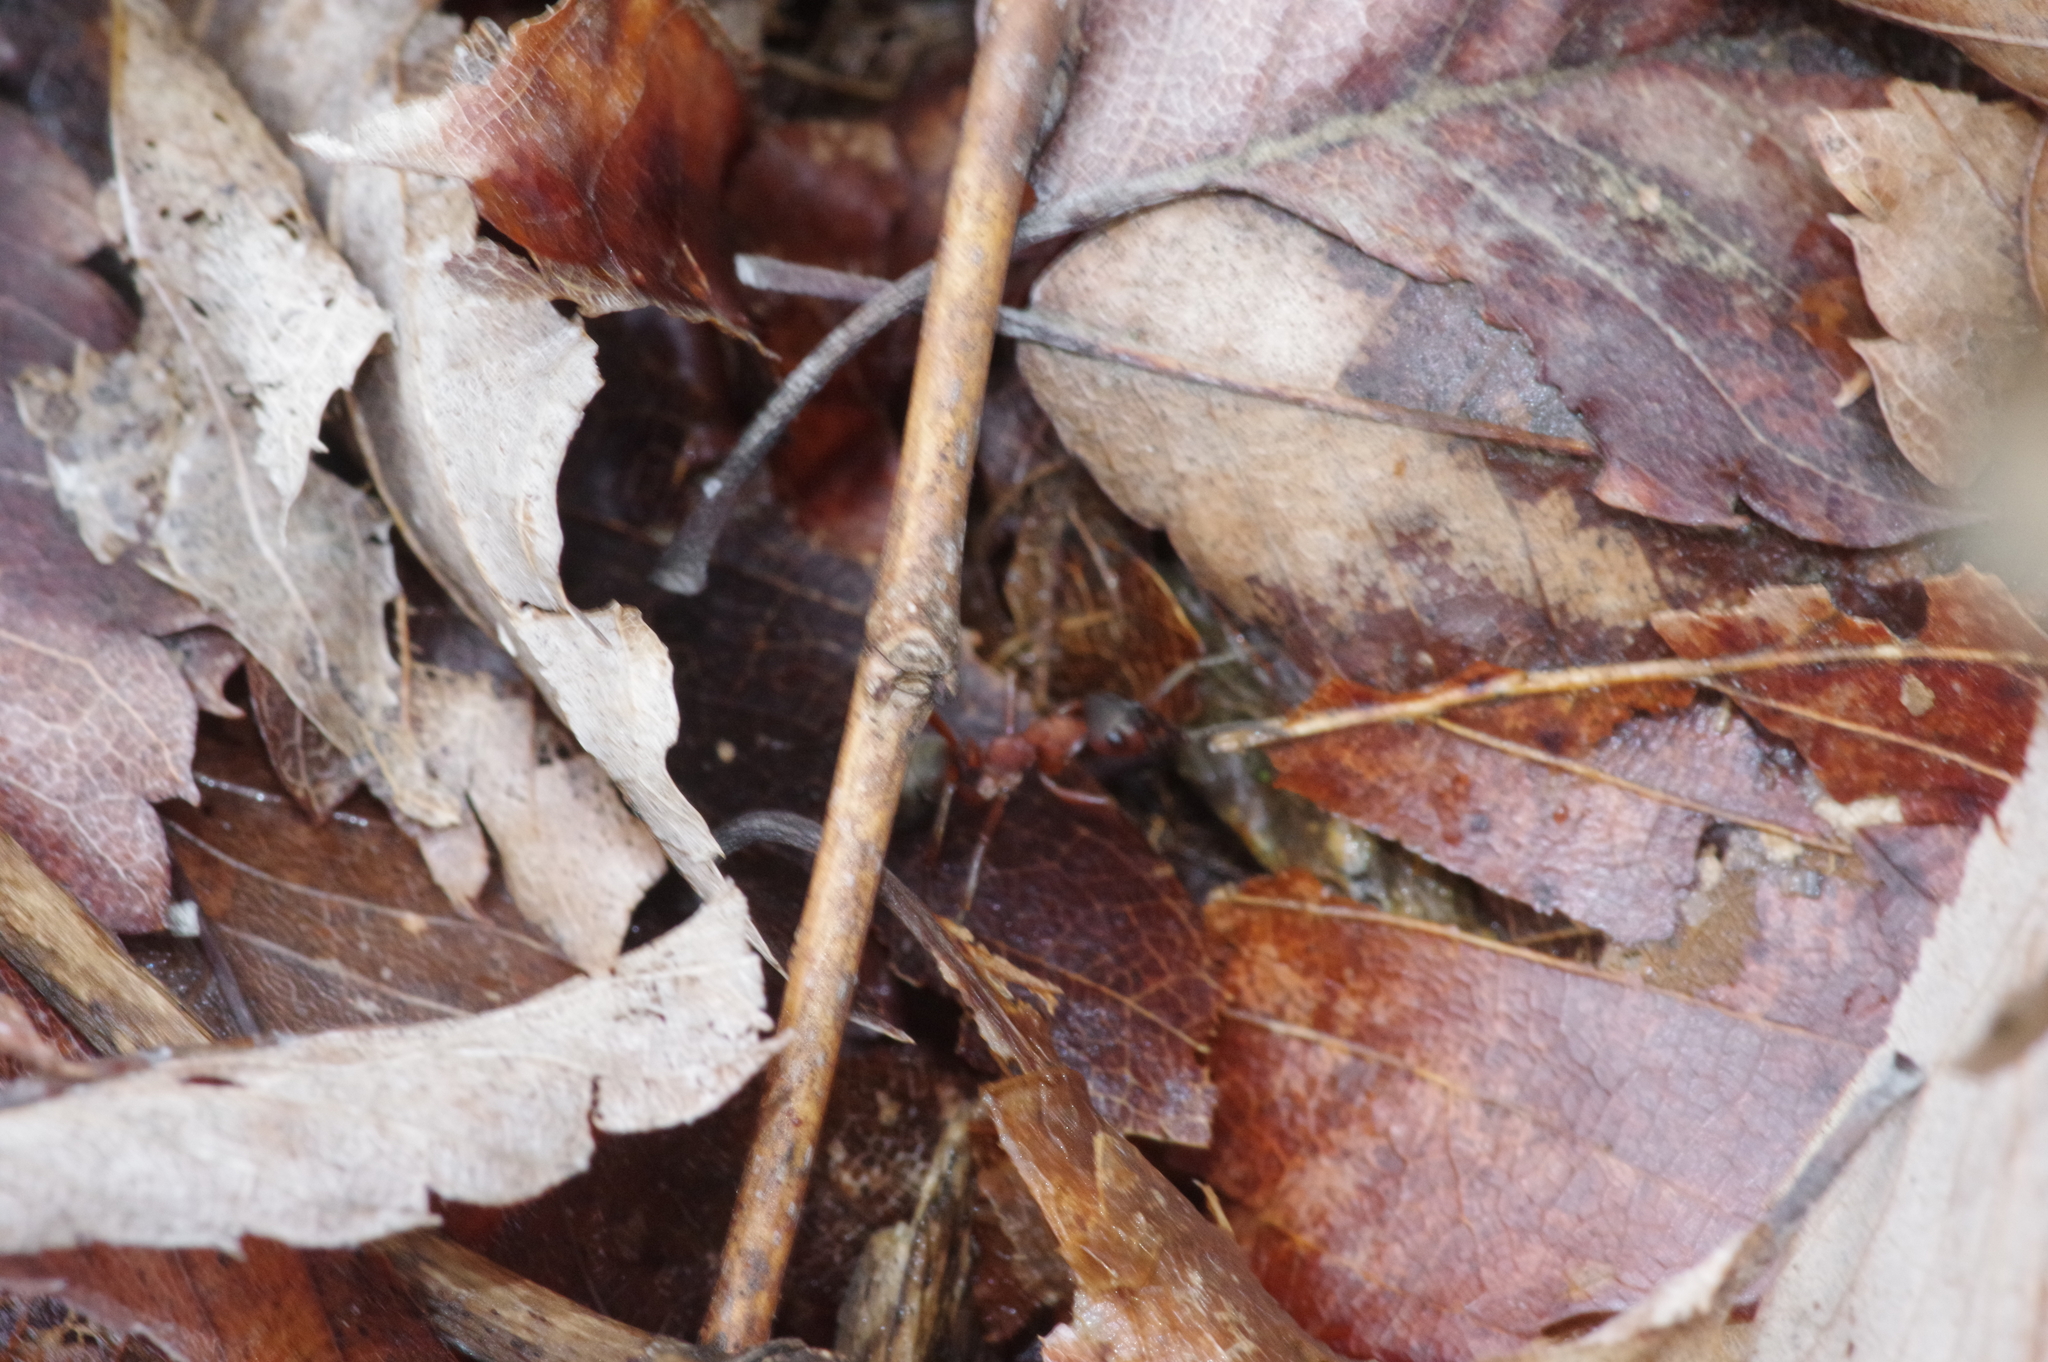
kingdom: Animalia
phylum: Arthropoda
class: Insecta
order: Hymenoptera
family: Formicidae
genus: Formica
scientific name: Formica sanguinea
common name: Blood-red ant
